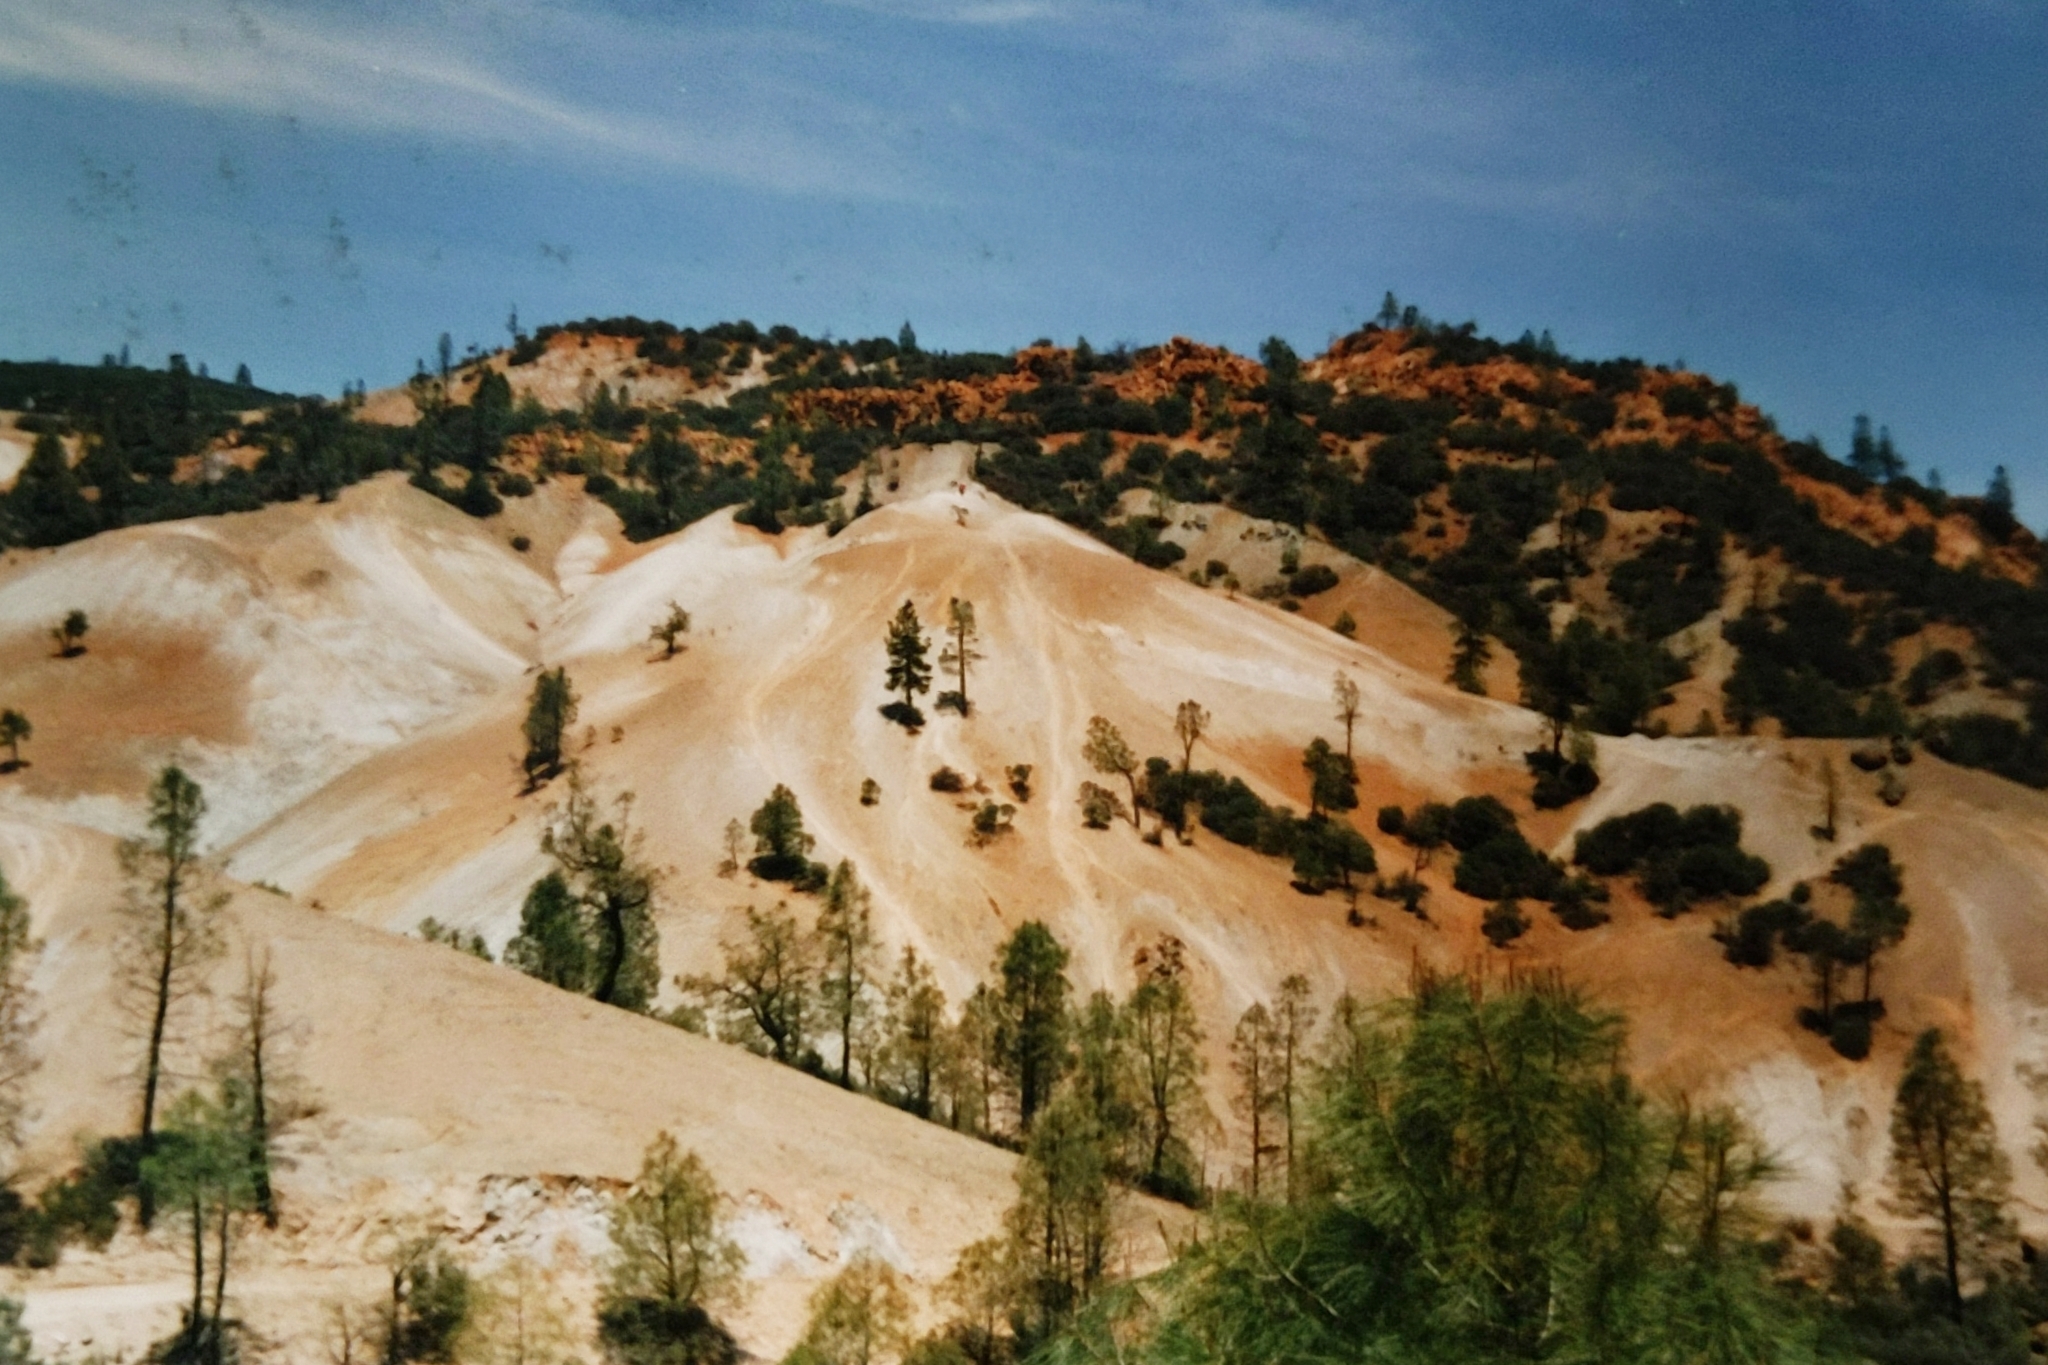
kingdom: Plantae
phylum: Tracheophyta
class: Pinopsida
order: Pinales
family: Pinaceae
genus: Pinus
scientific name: Pinus sabiniana
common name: Bull pine
